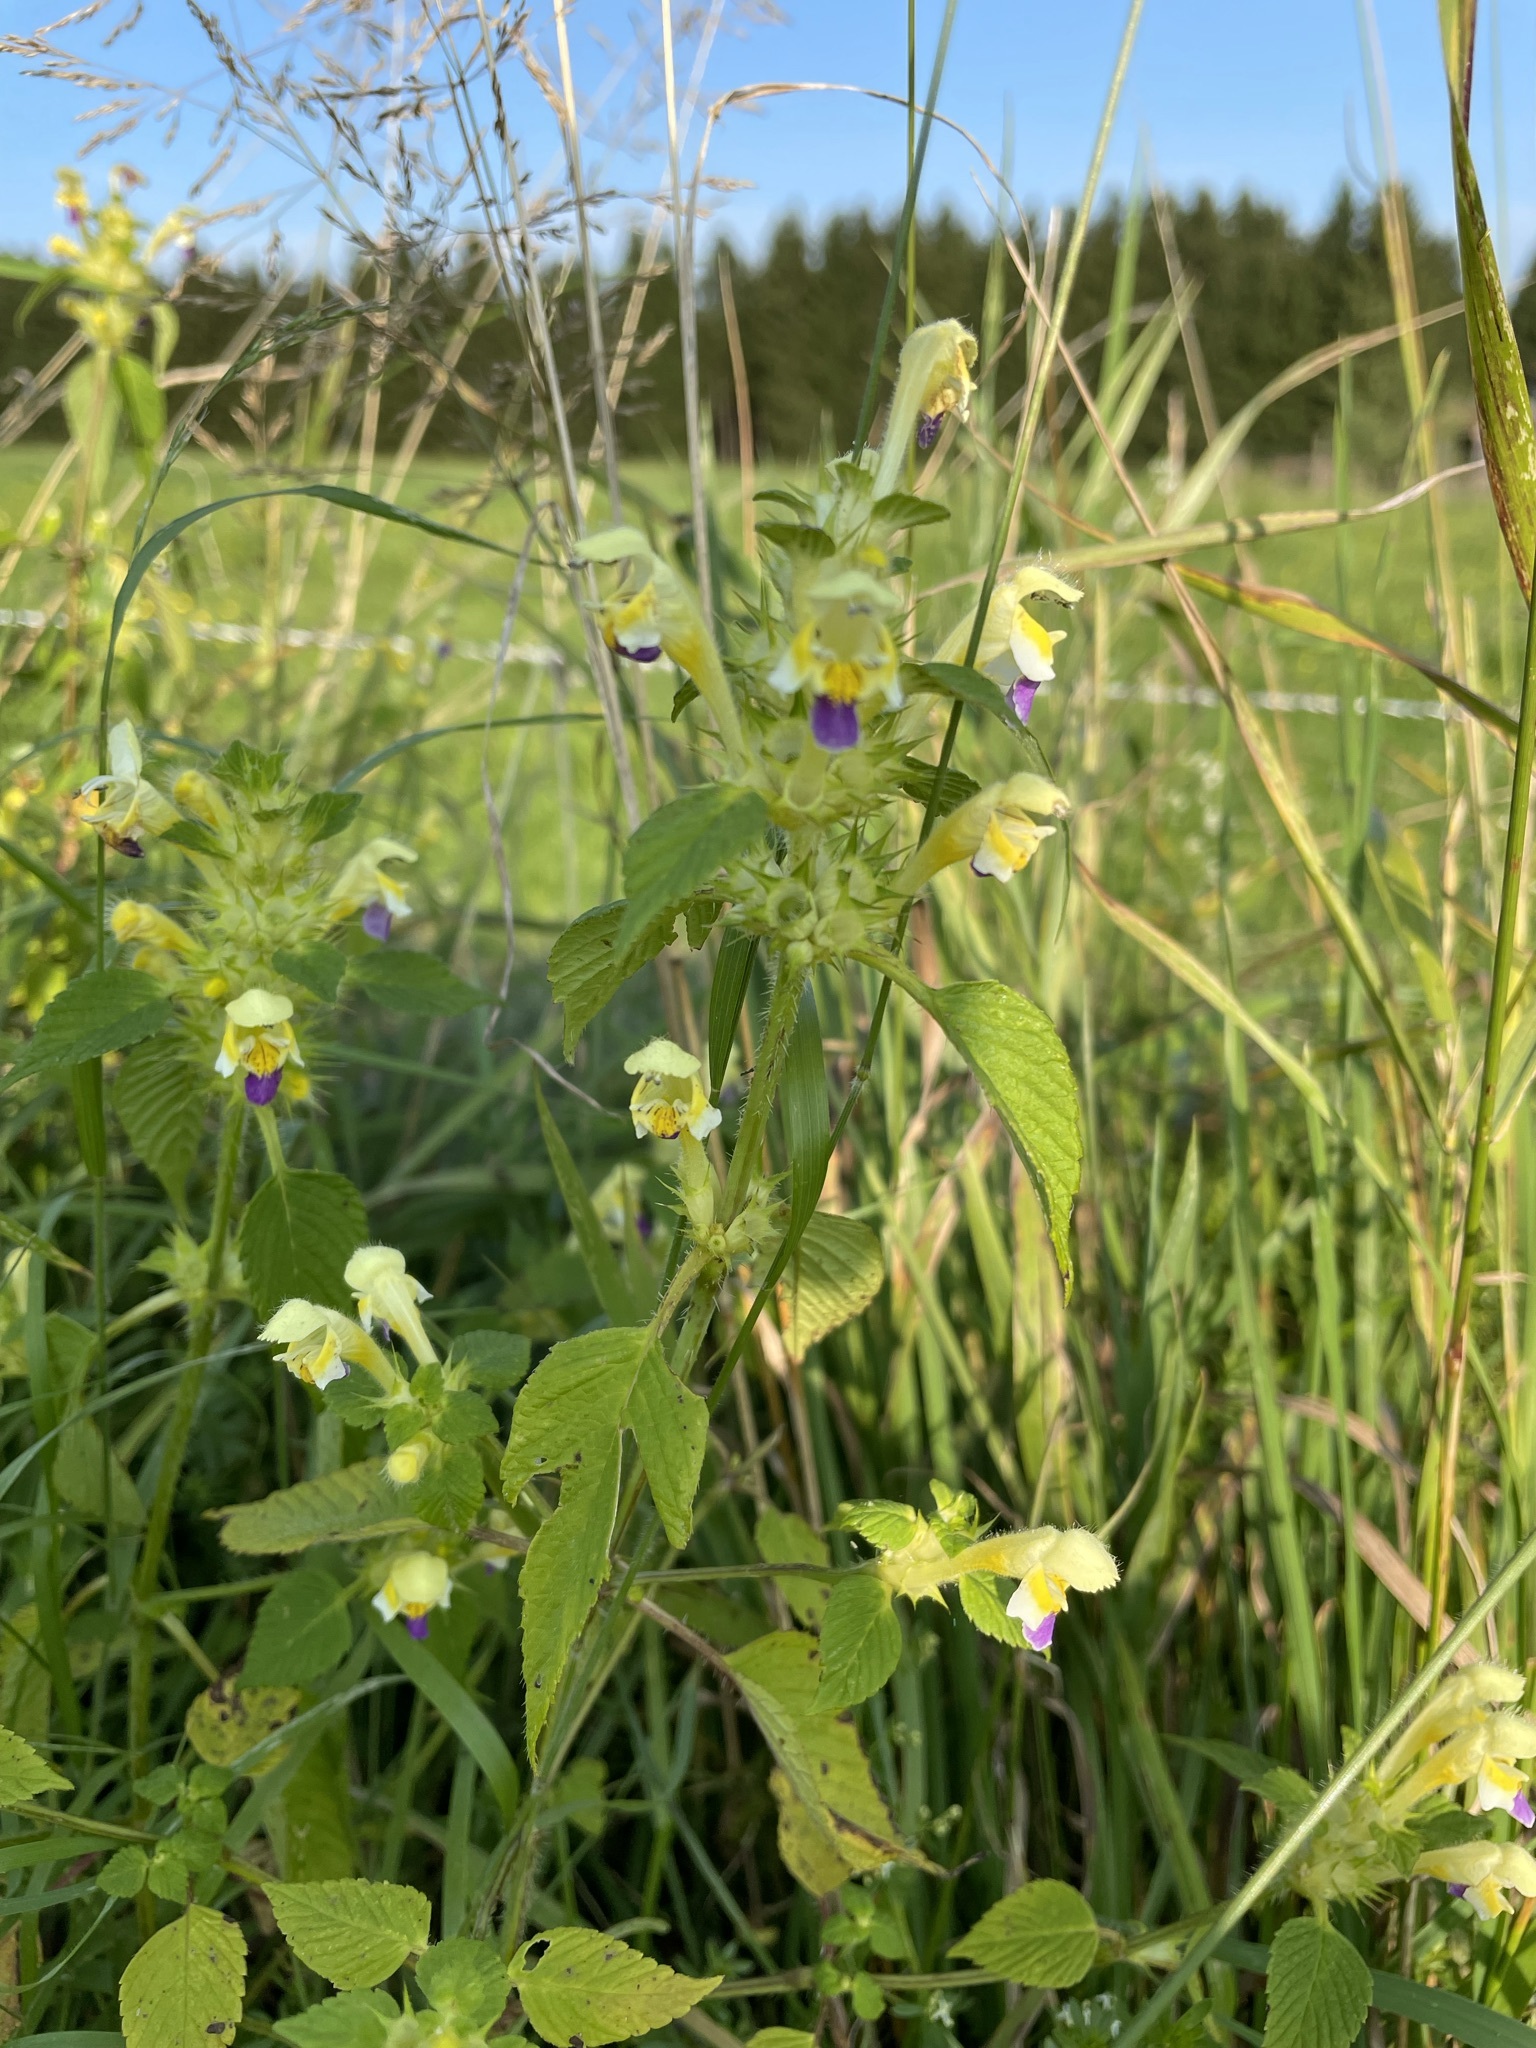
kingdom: Plantae
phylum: Tracheophyta
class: Magnoliopsida
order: Lamiales
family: Lamiaceae
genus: Galeopsis
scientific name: Galeopsis speciosa
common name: Large-flowered hemp-nettle
